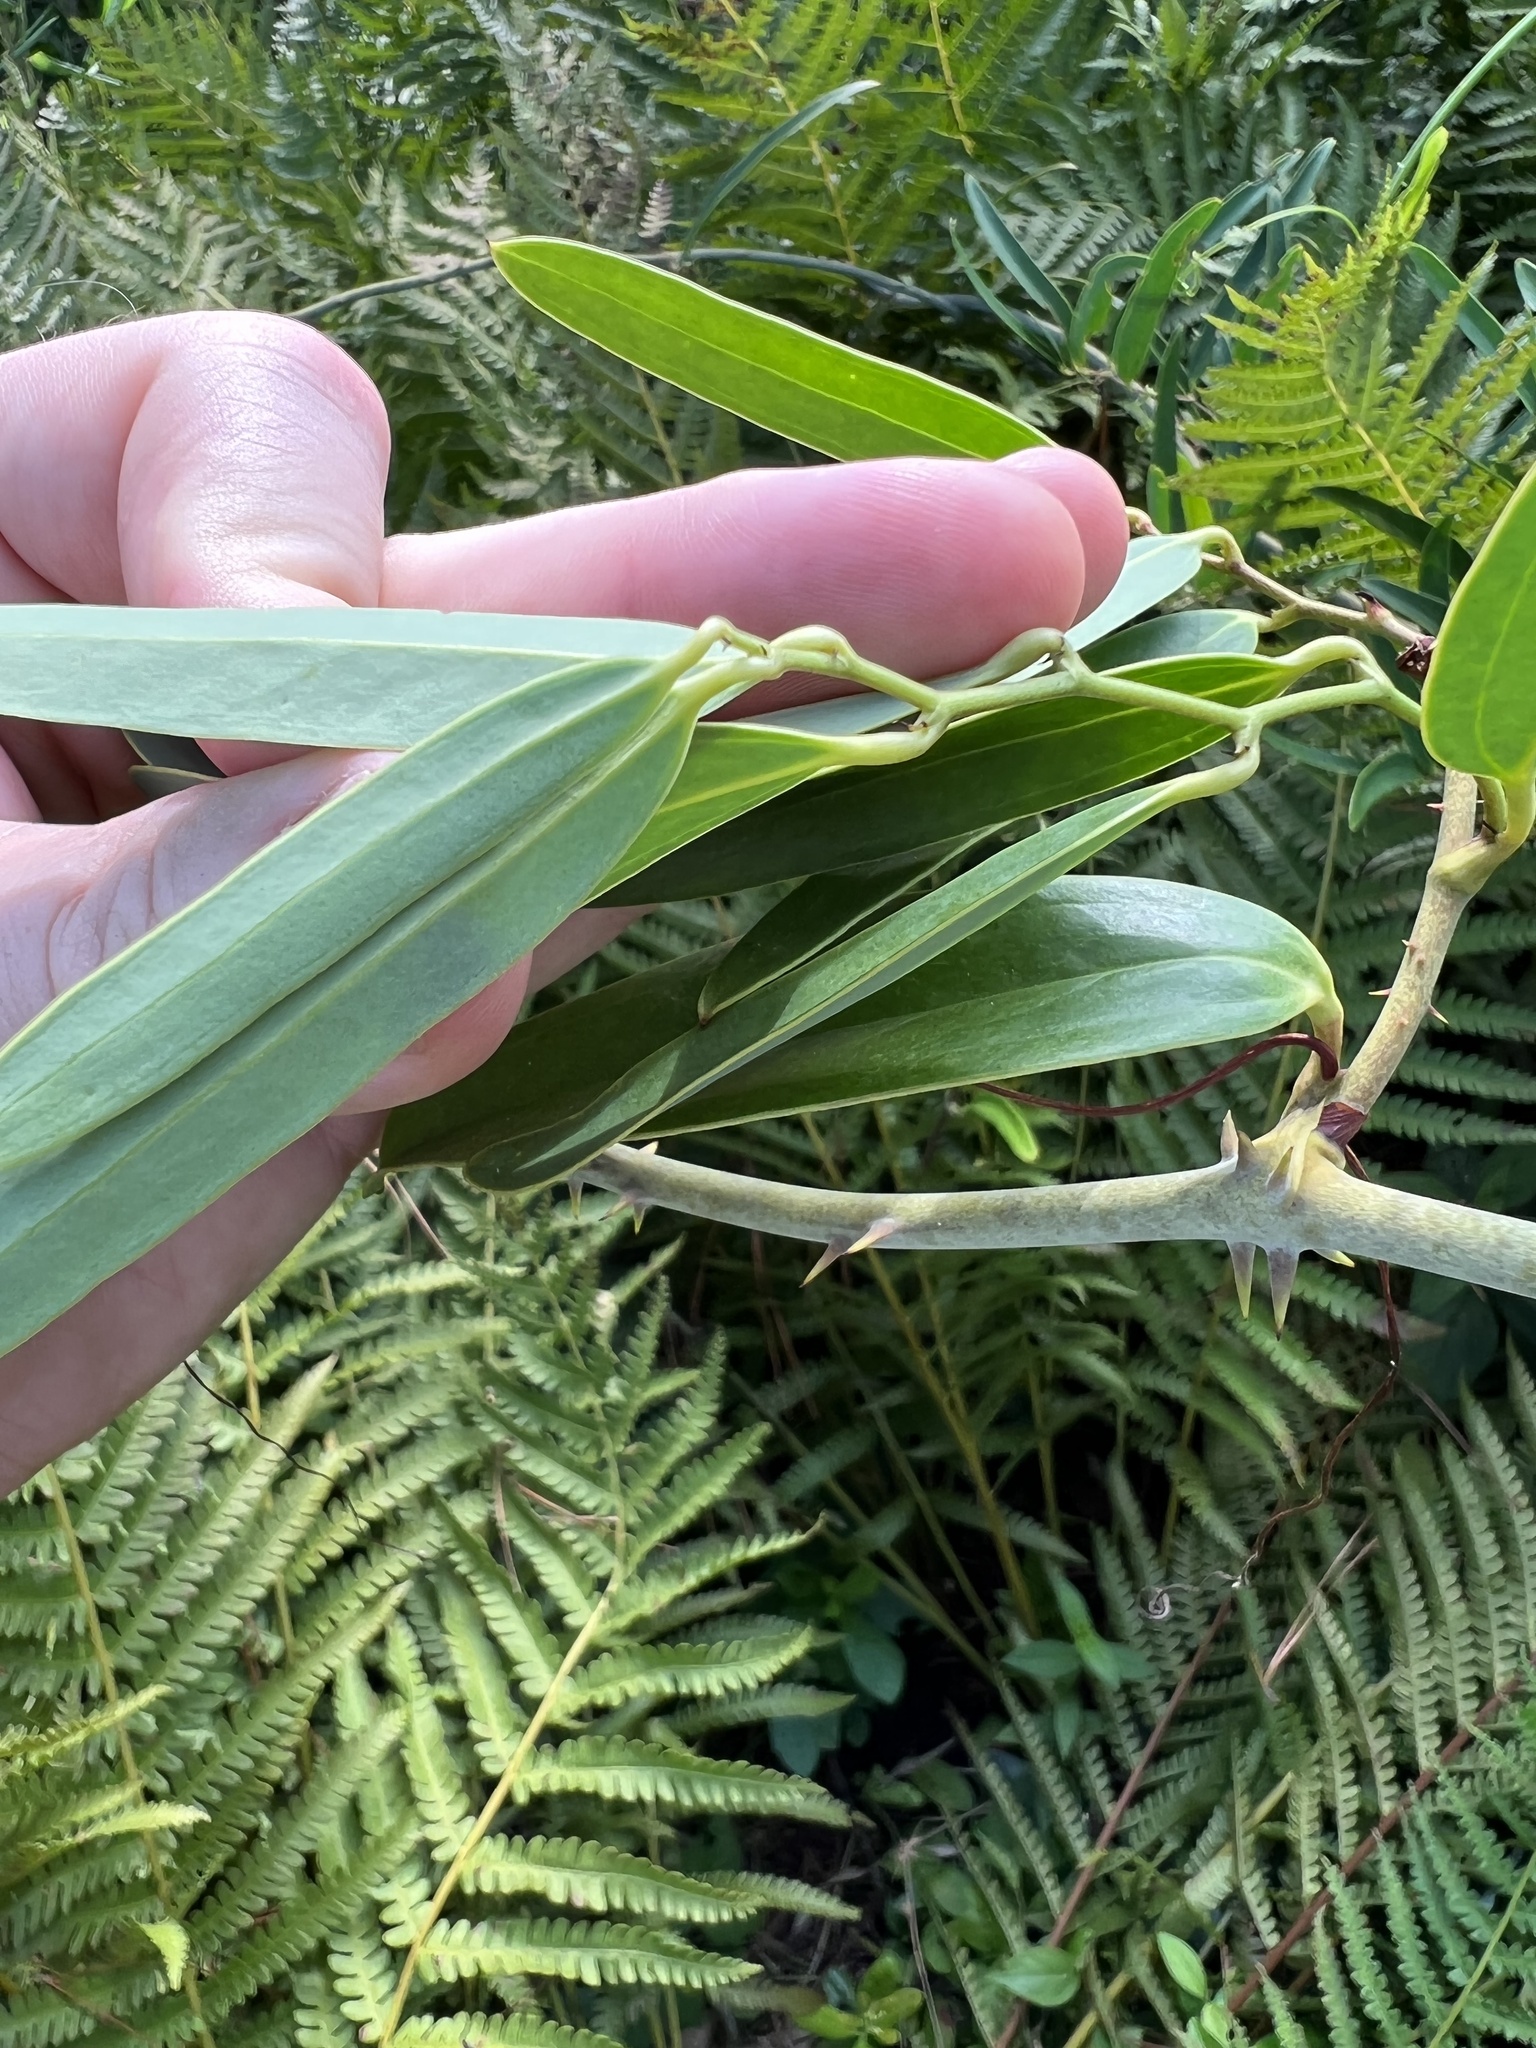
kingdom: Plantae
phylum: Tracheophyta
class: Liliopsida
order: Liliales
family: Smilacaceae
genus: Smilax
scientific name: Smilax laurifolia
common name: Bamboovine
